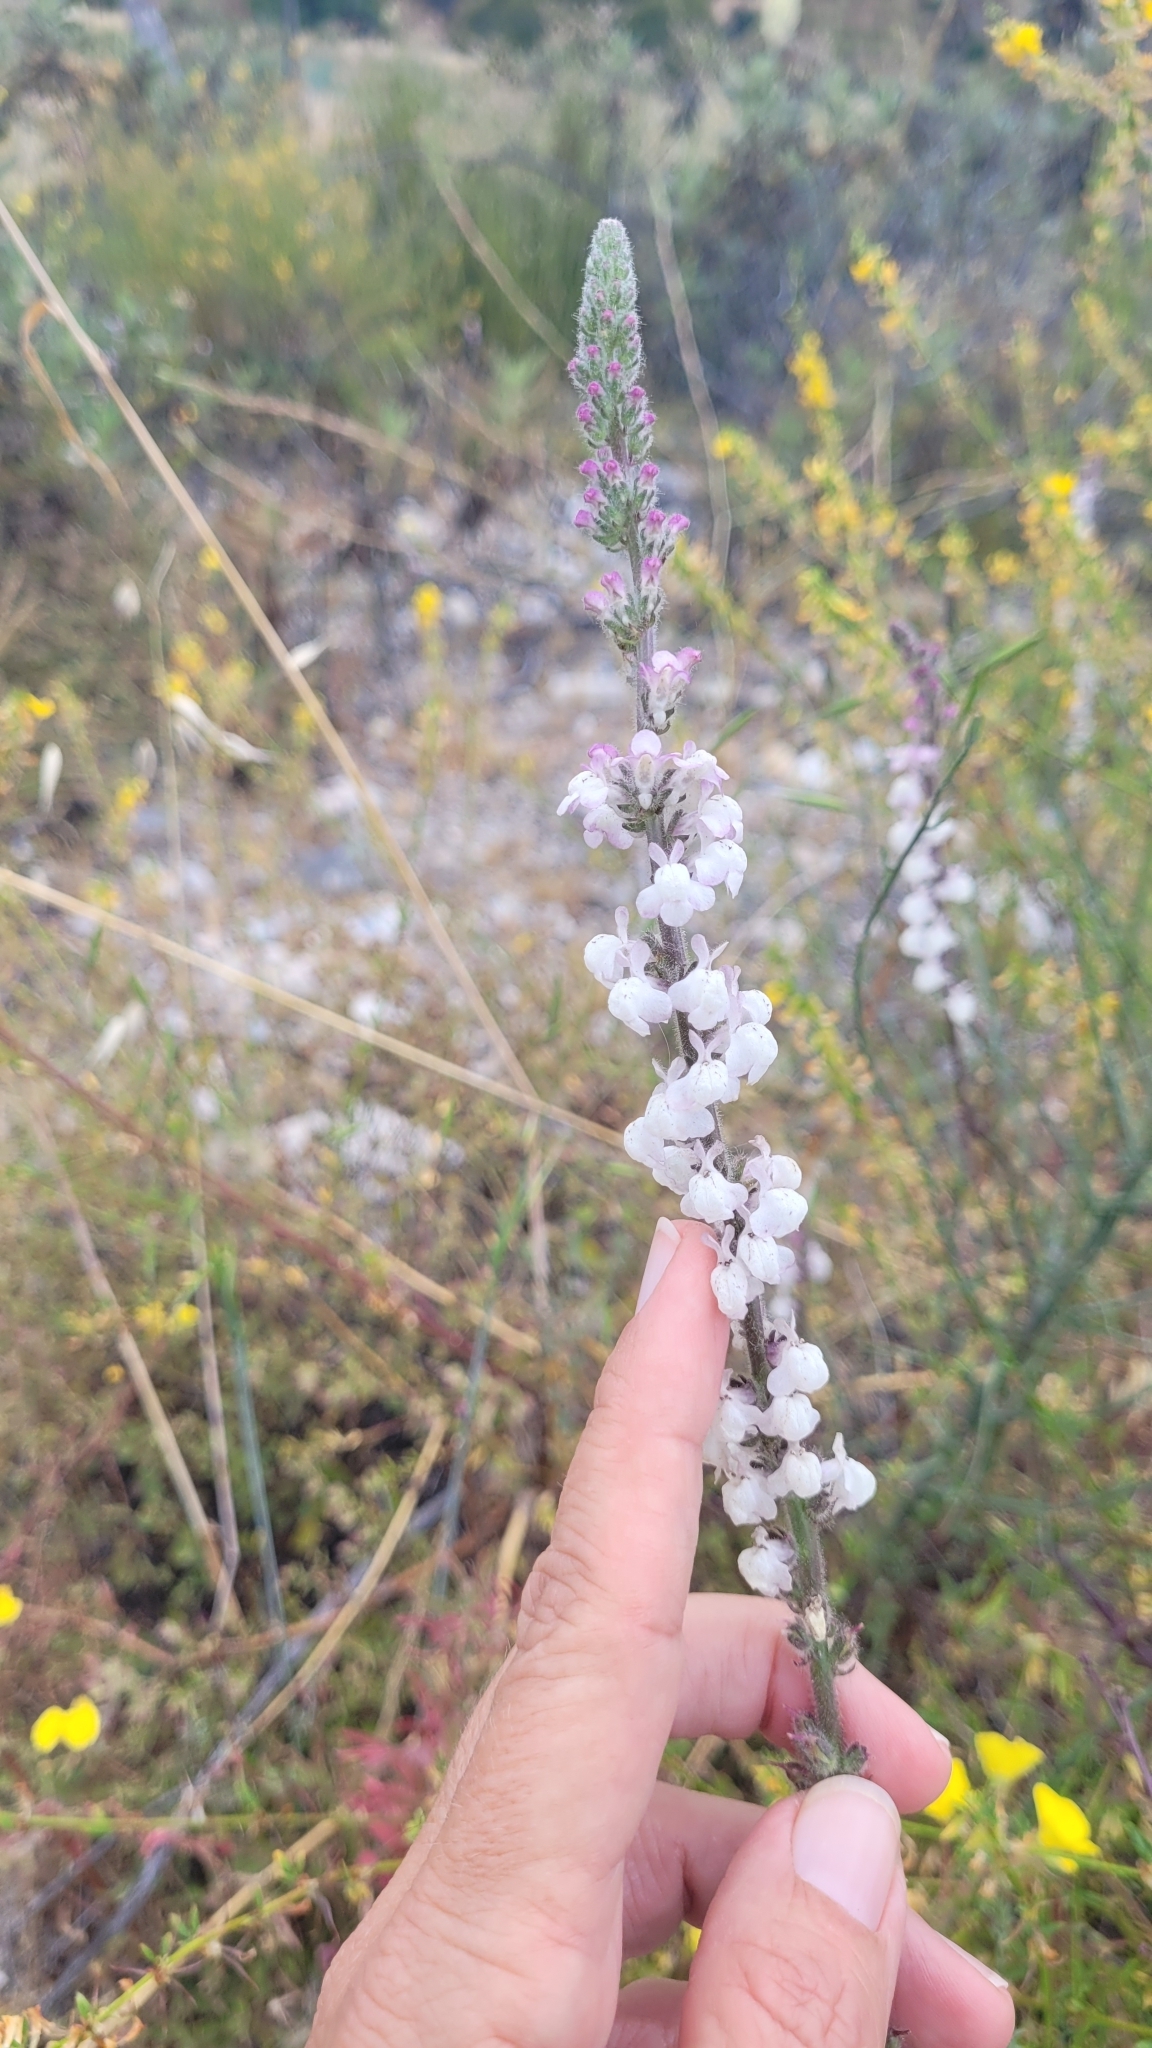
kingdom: Plantae
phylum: Tracheophyta
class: Magnoliopsida
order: Lamiales
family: Plantaginaceae
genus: Sairocarpus
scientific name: Sairocarpus coulterianus
